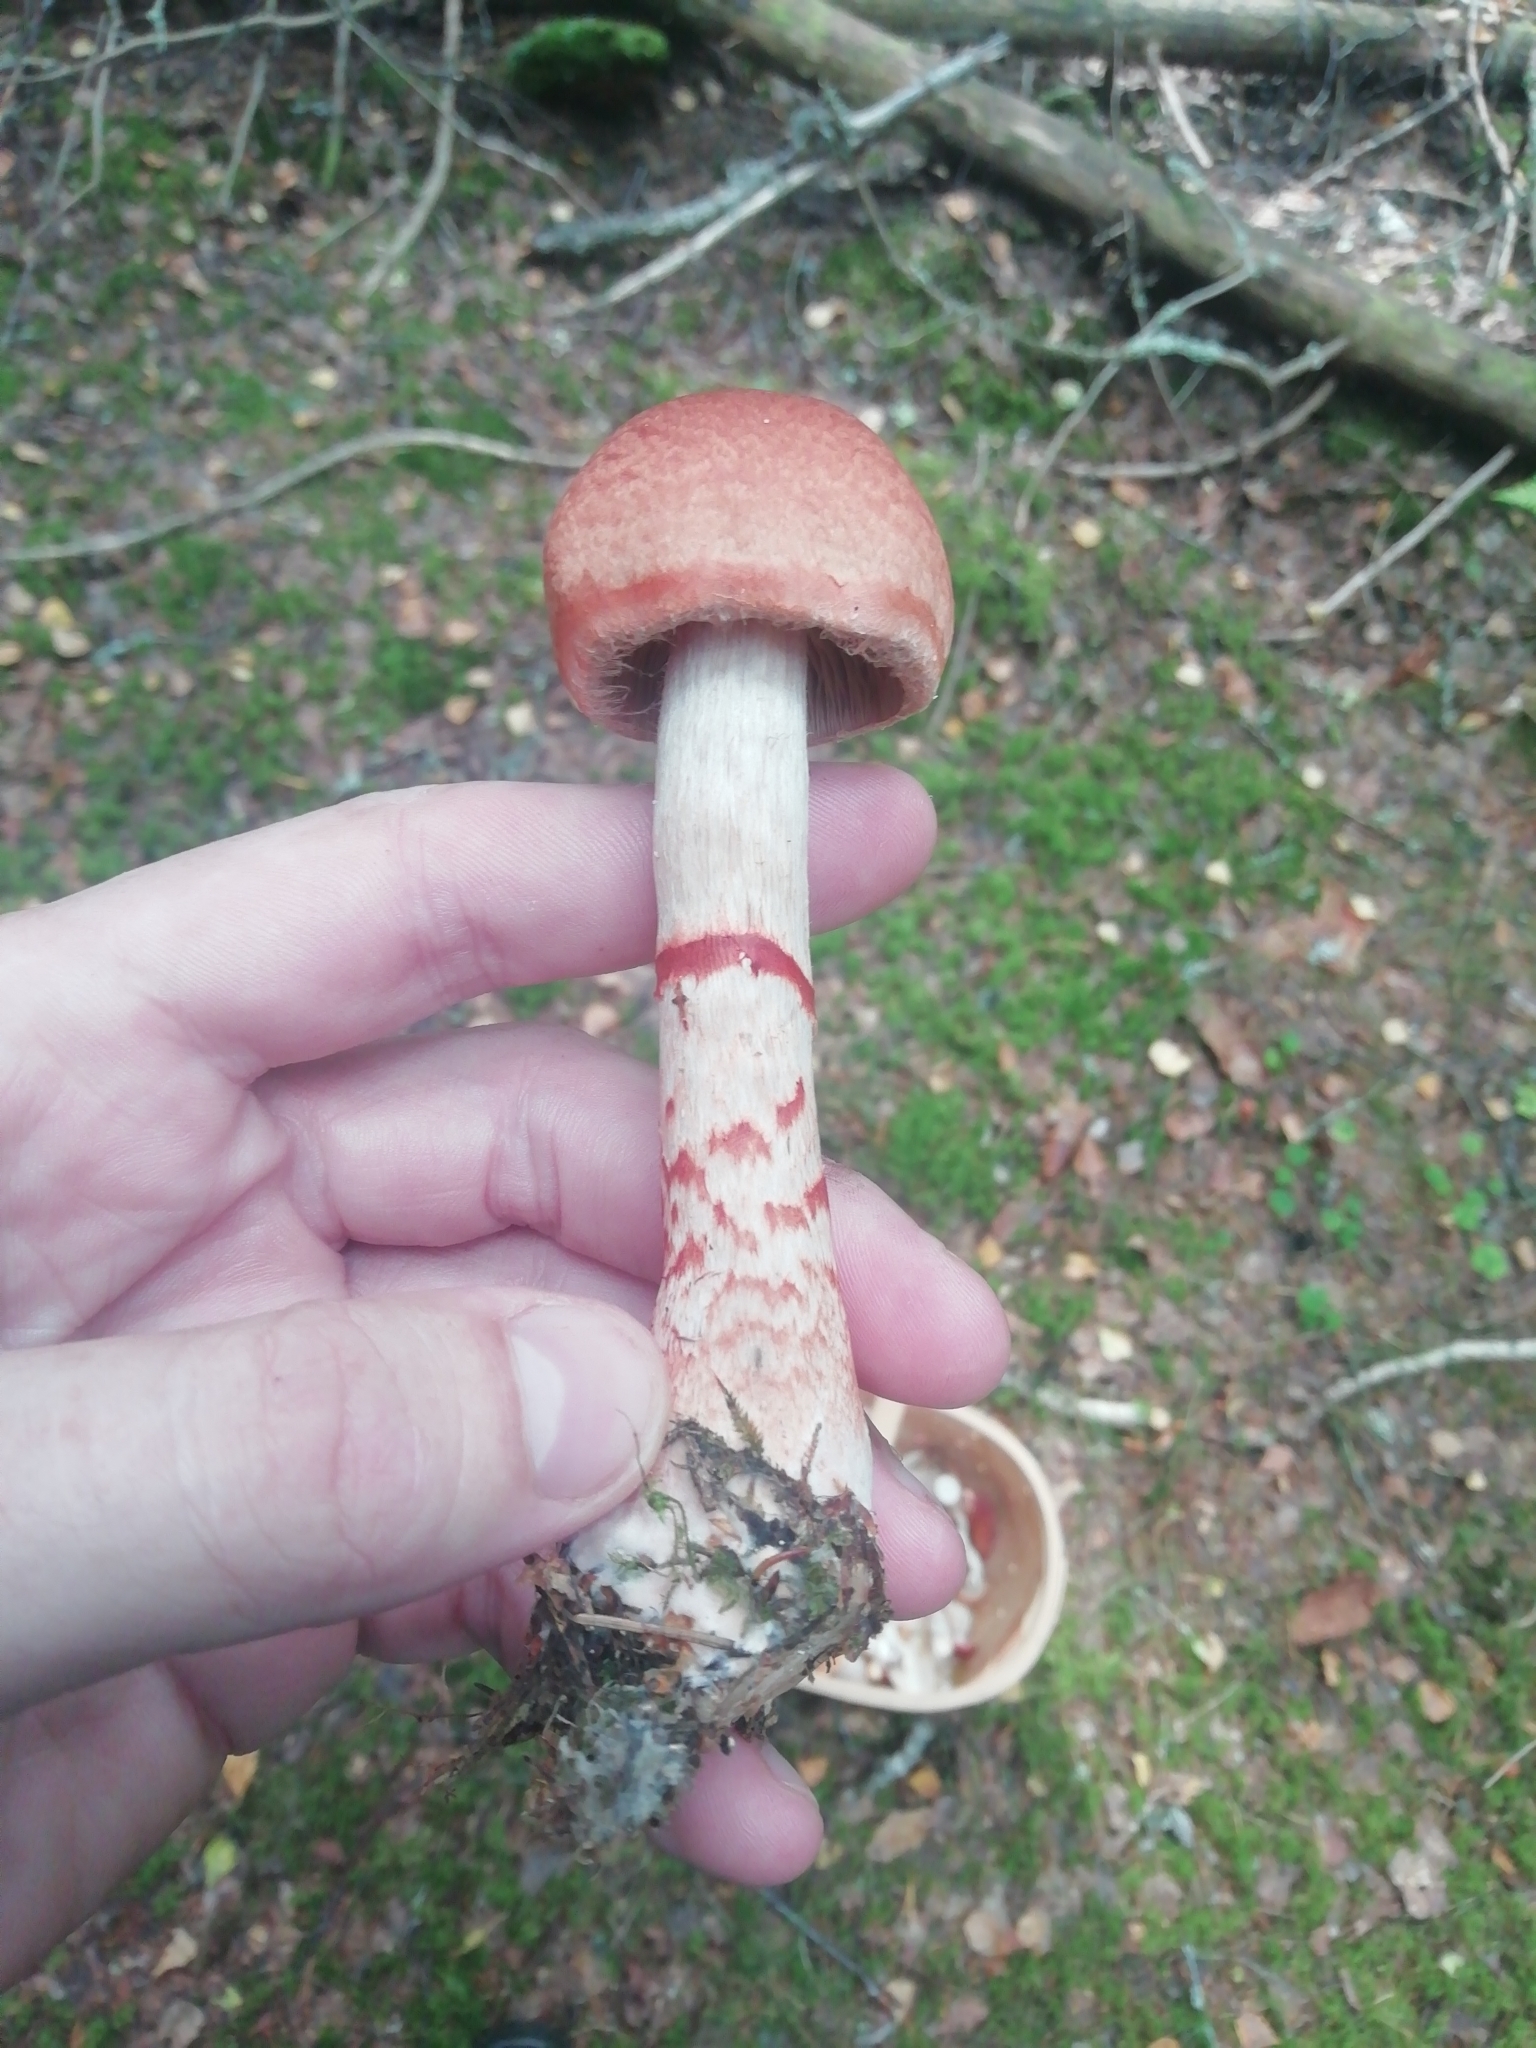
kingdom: Fungi
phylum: Basidiomycota
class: Agaricomycetes
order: Agaricales
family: Cortinariaceae
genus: Cortinarius
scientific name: Cortinarius armillatus
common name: Red banded webcap
